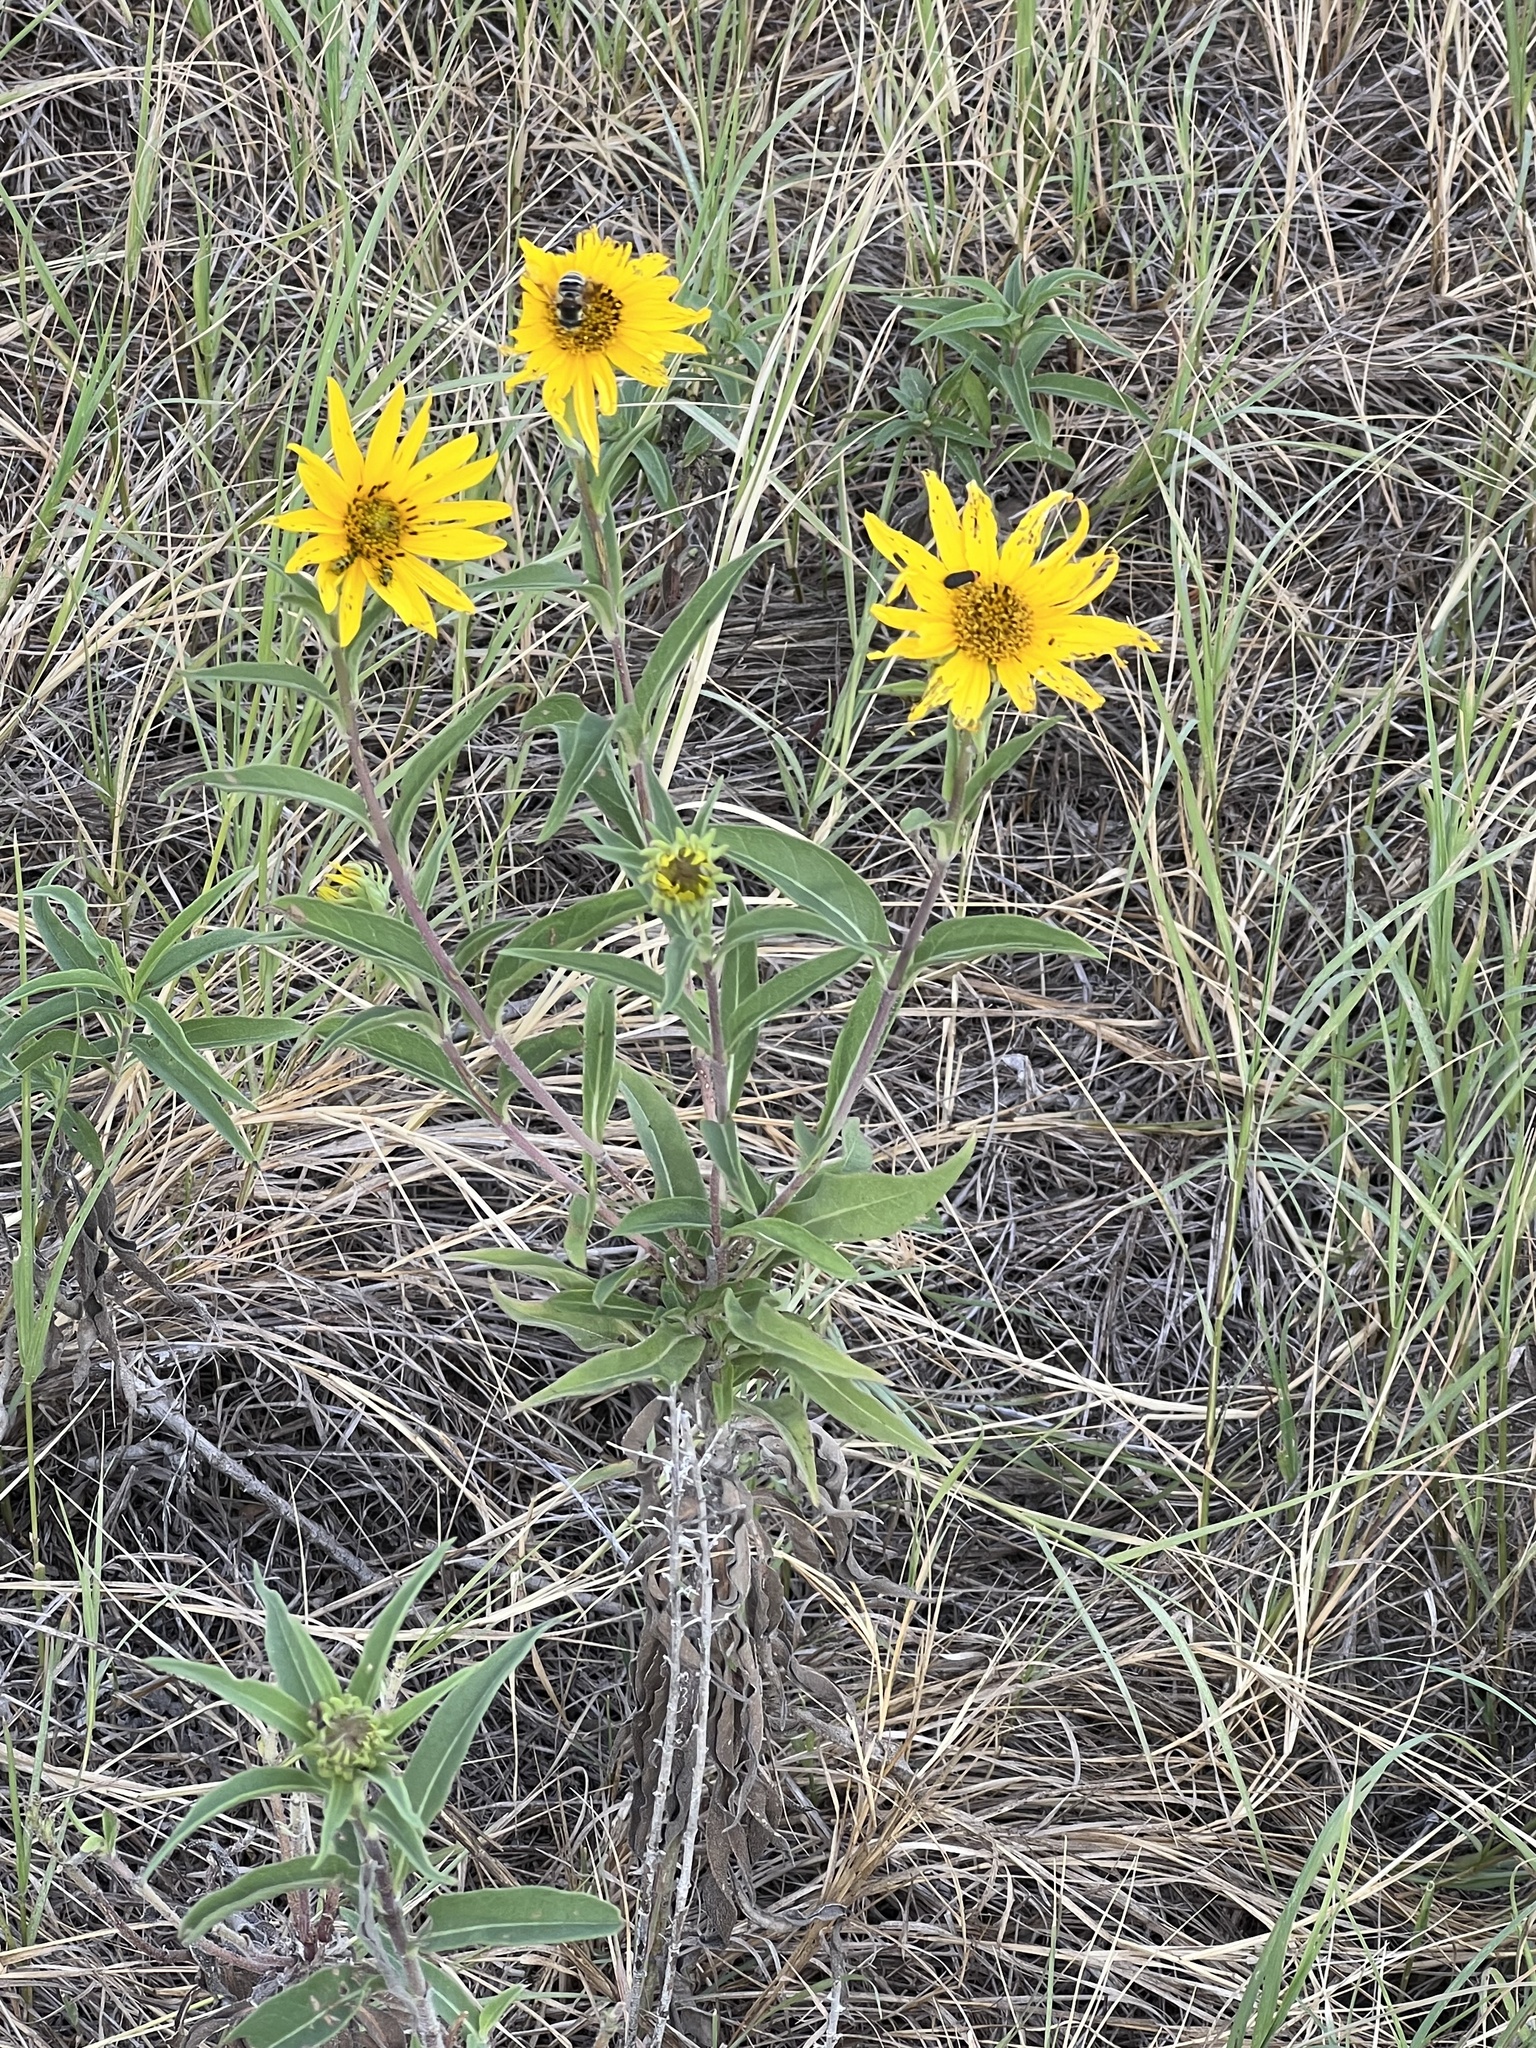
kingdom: Plantae
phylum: Tracheophyta
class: Magnoliopsida
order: Asterales
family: Asteraceae
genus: Helianthus
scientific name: Helianthus maximiliani
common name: Maximilian's sunflower
